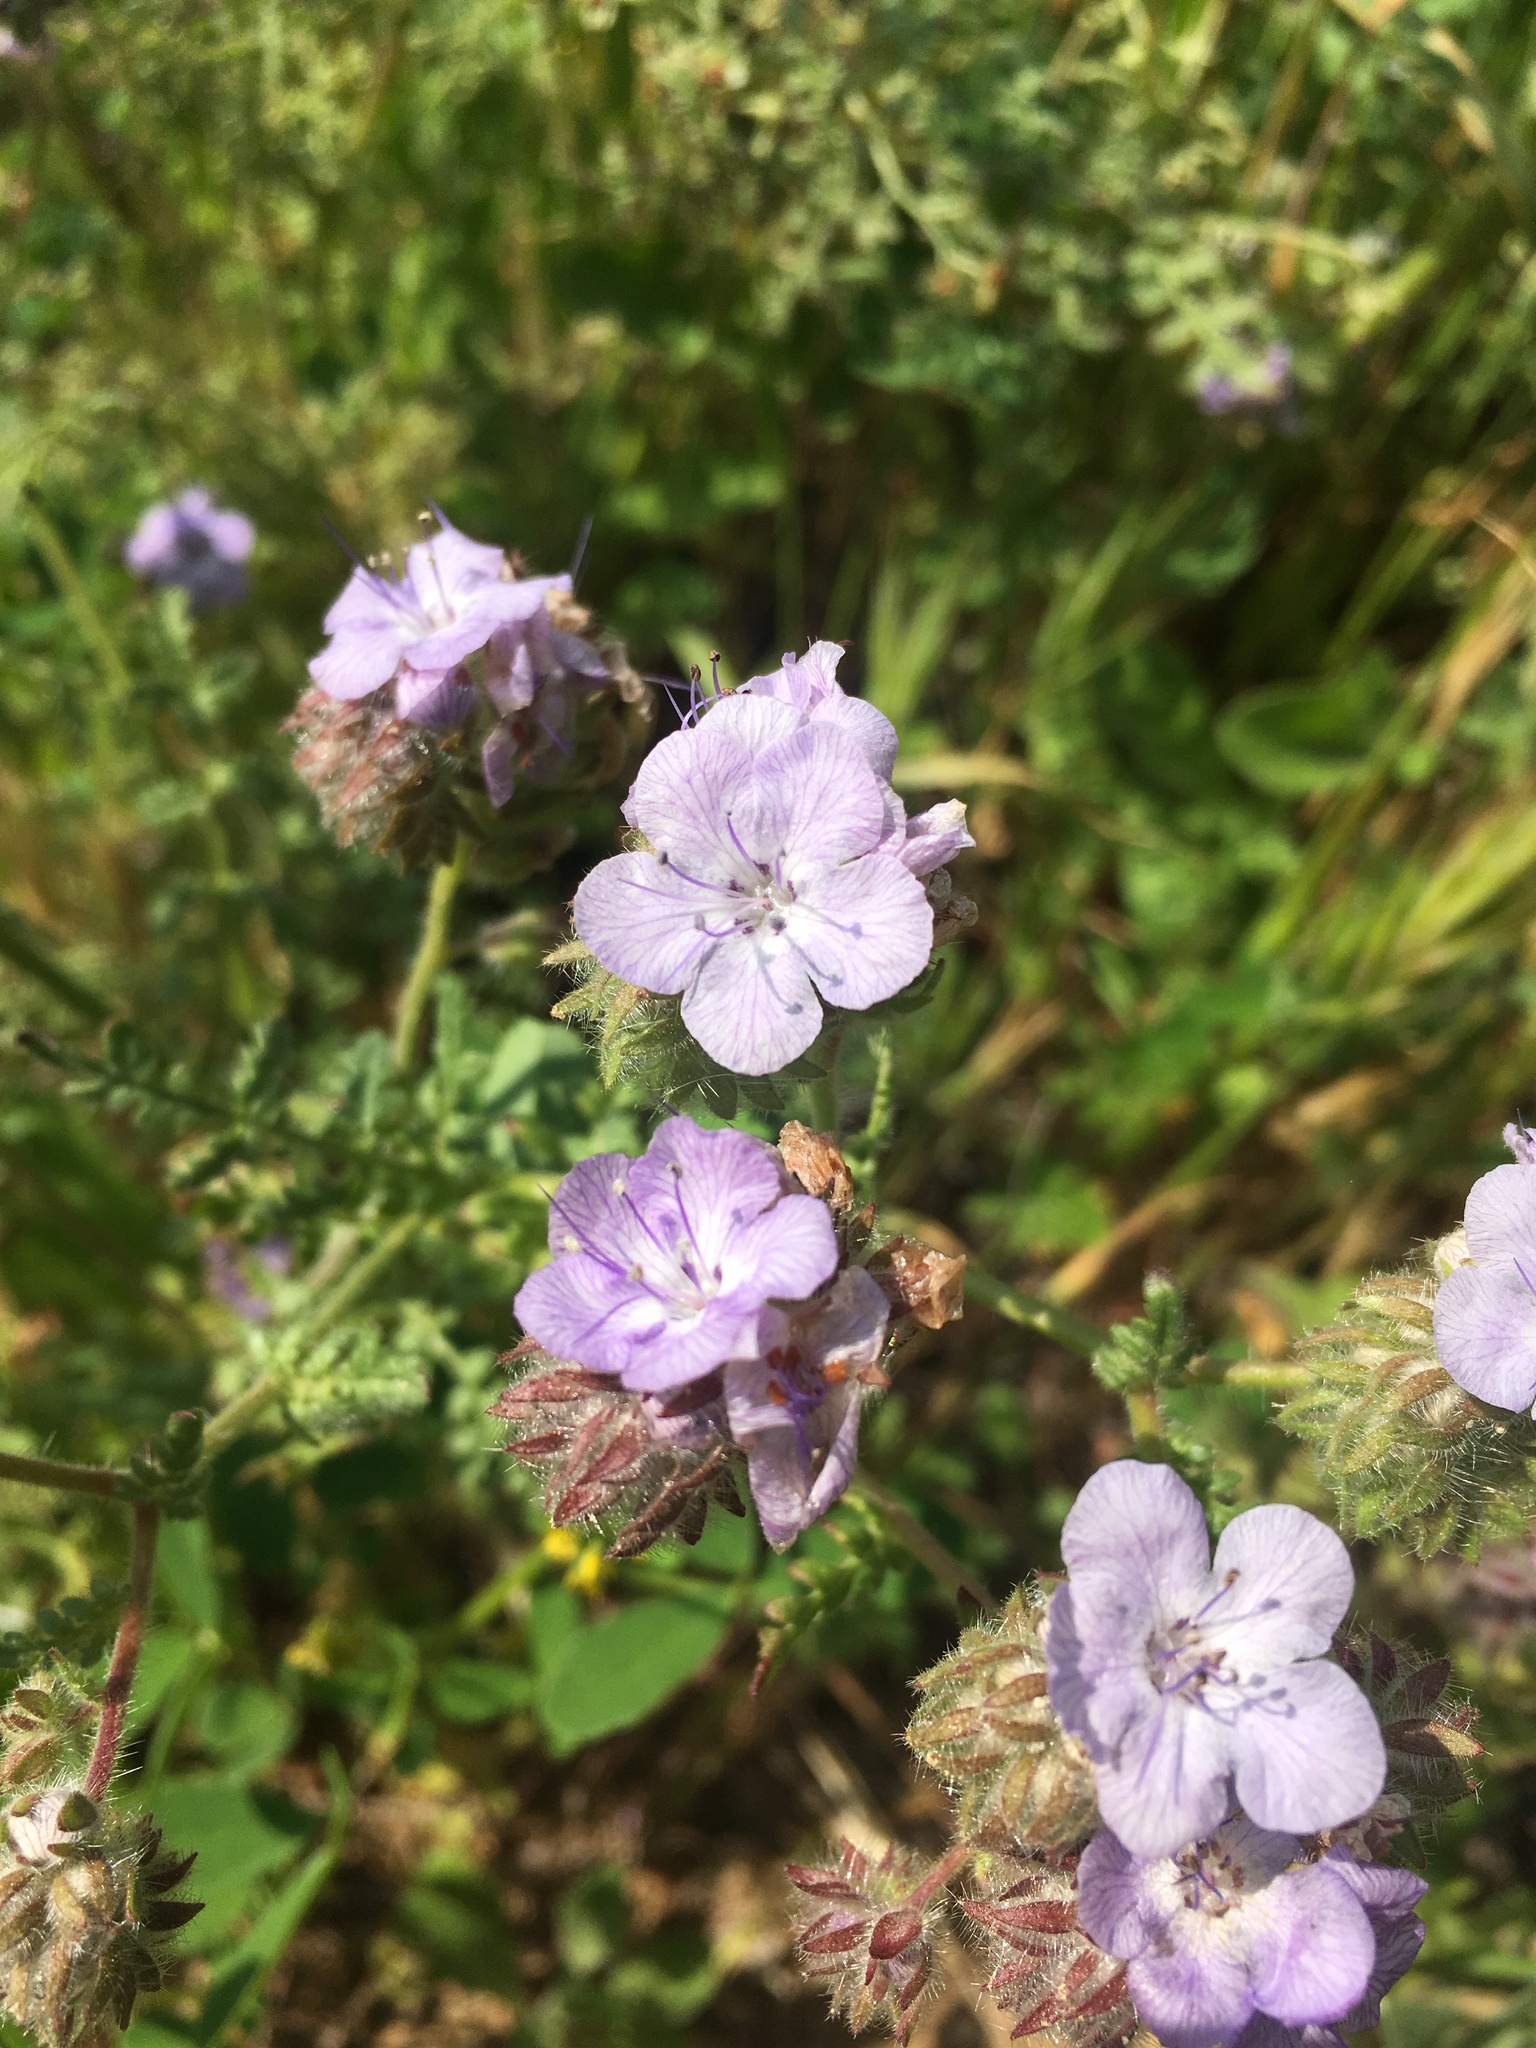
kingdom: Plantae
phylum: Tracheophyta
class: Magnoliopsida
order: Boraginales
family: Hydrophyllaceae
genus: Phacelia
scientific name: Phacelia distans
